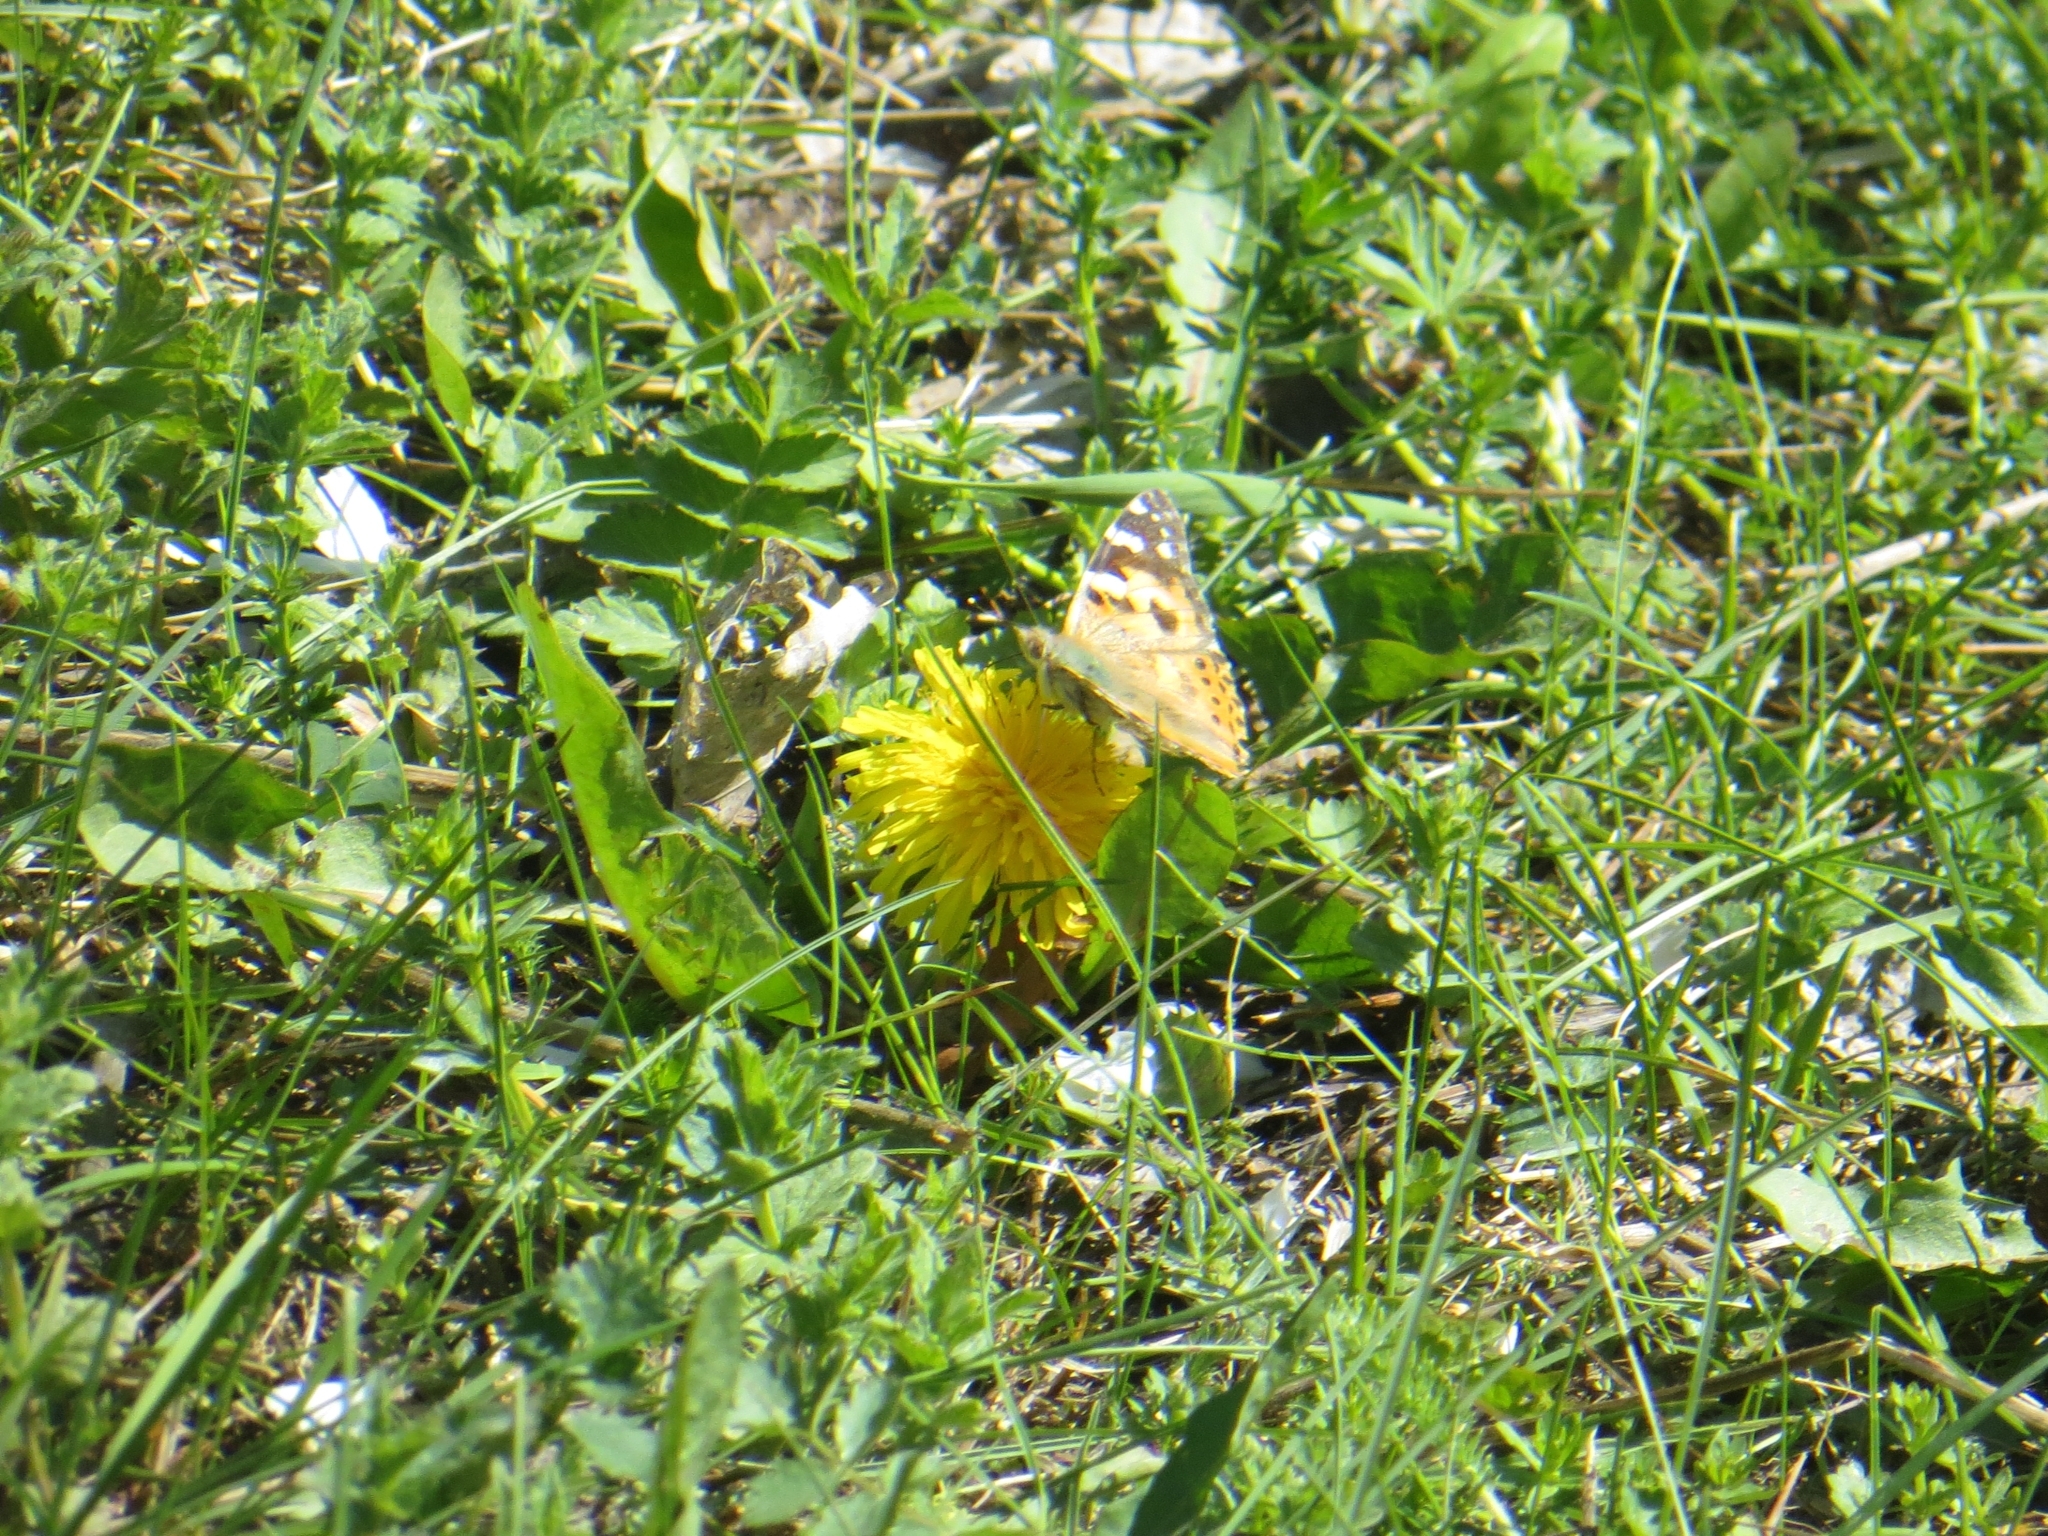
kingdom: Animalia
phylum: Arthropoda
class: Insecta
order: Lepidoptera
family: Nymphalidae
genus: Vanessa
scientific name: Vanessa cardui
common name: Painted lady
